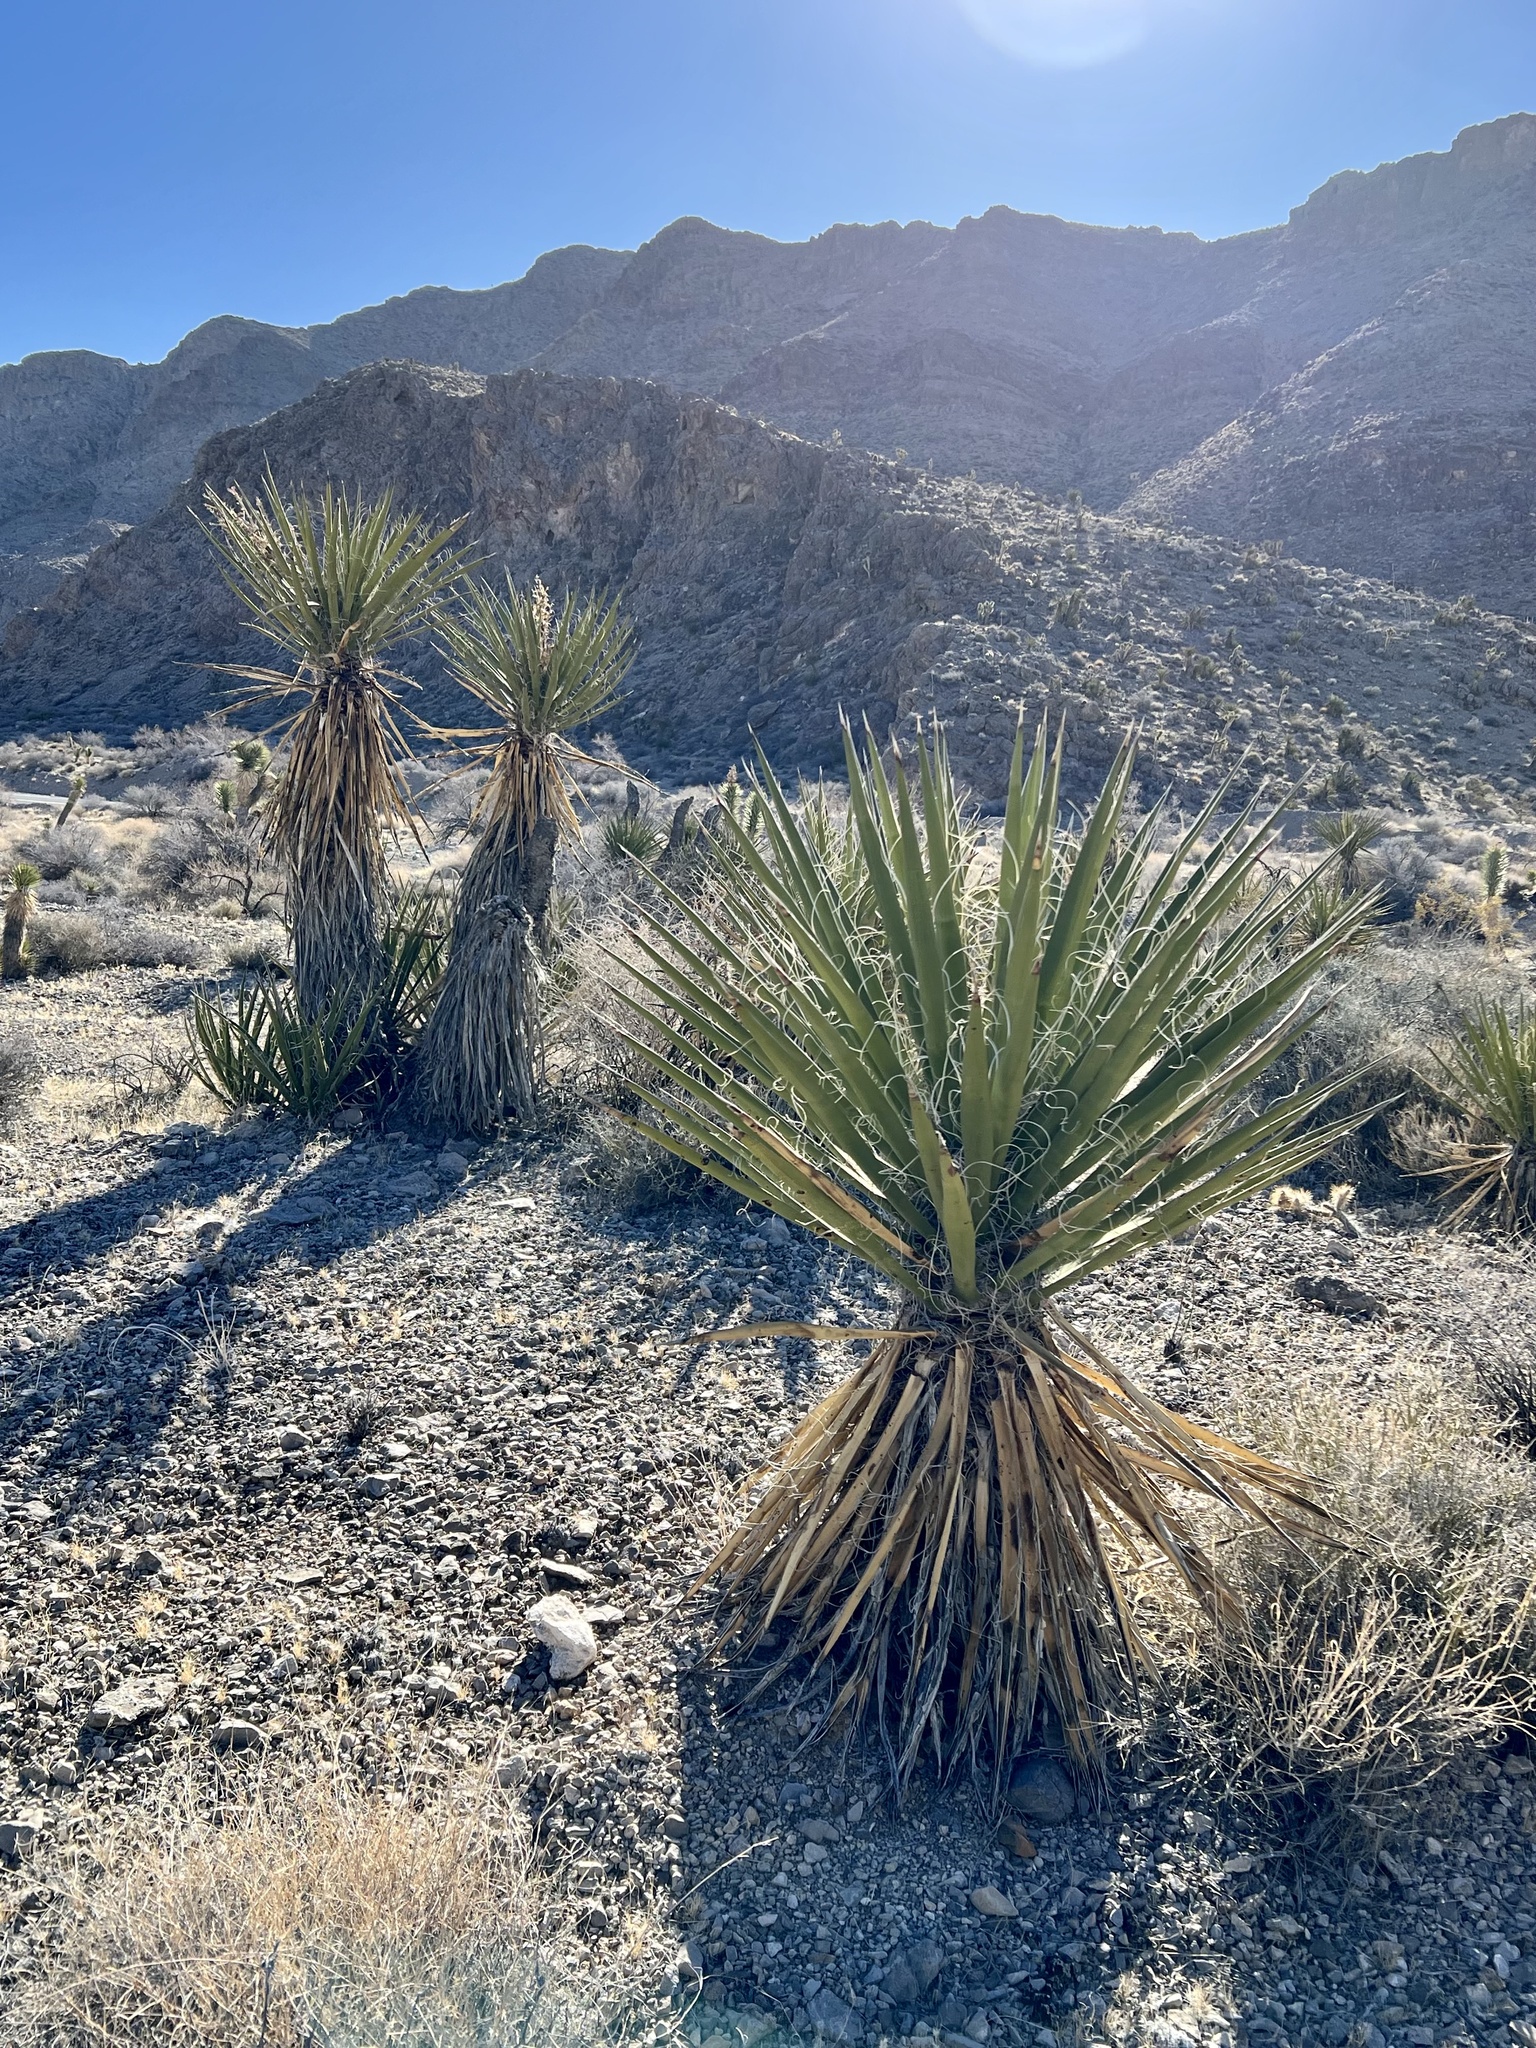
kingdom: Plantae
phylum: Tracheophyta
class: Liliopsida
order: Asparagales
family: Asparagaceae
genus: Yucca
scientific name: Yucca schidigera
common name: Mojave yucca
